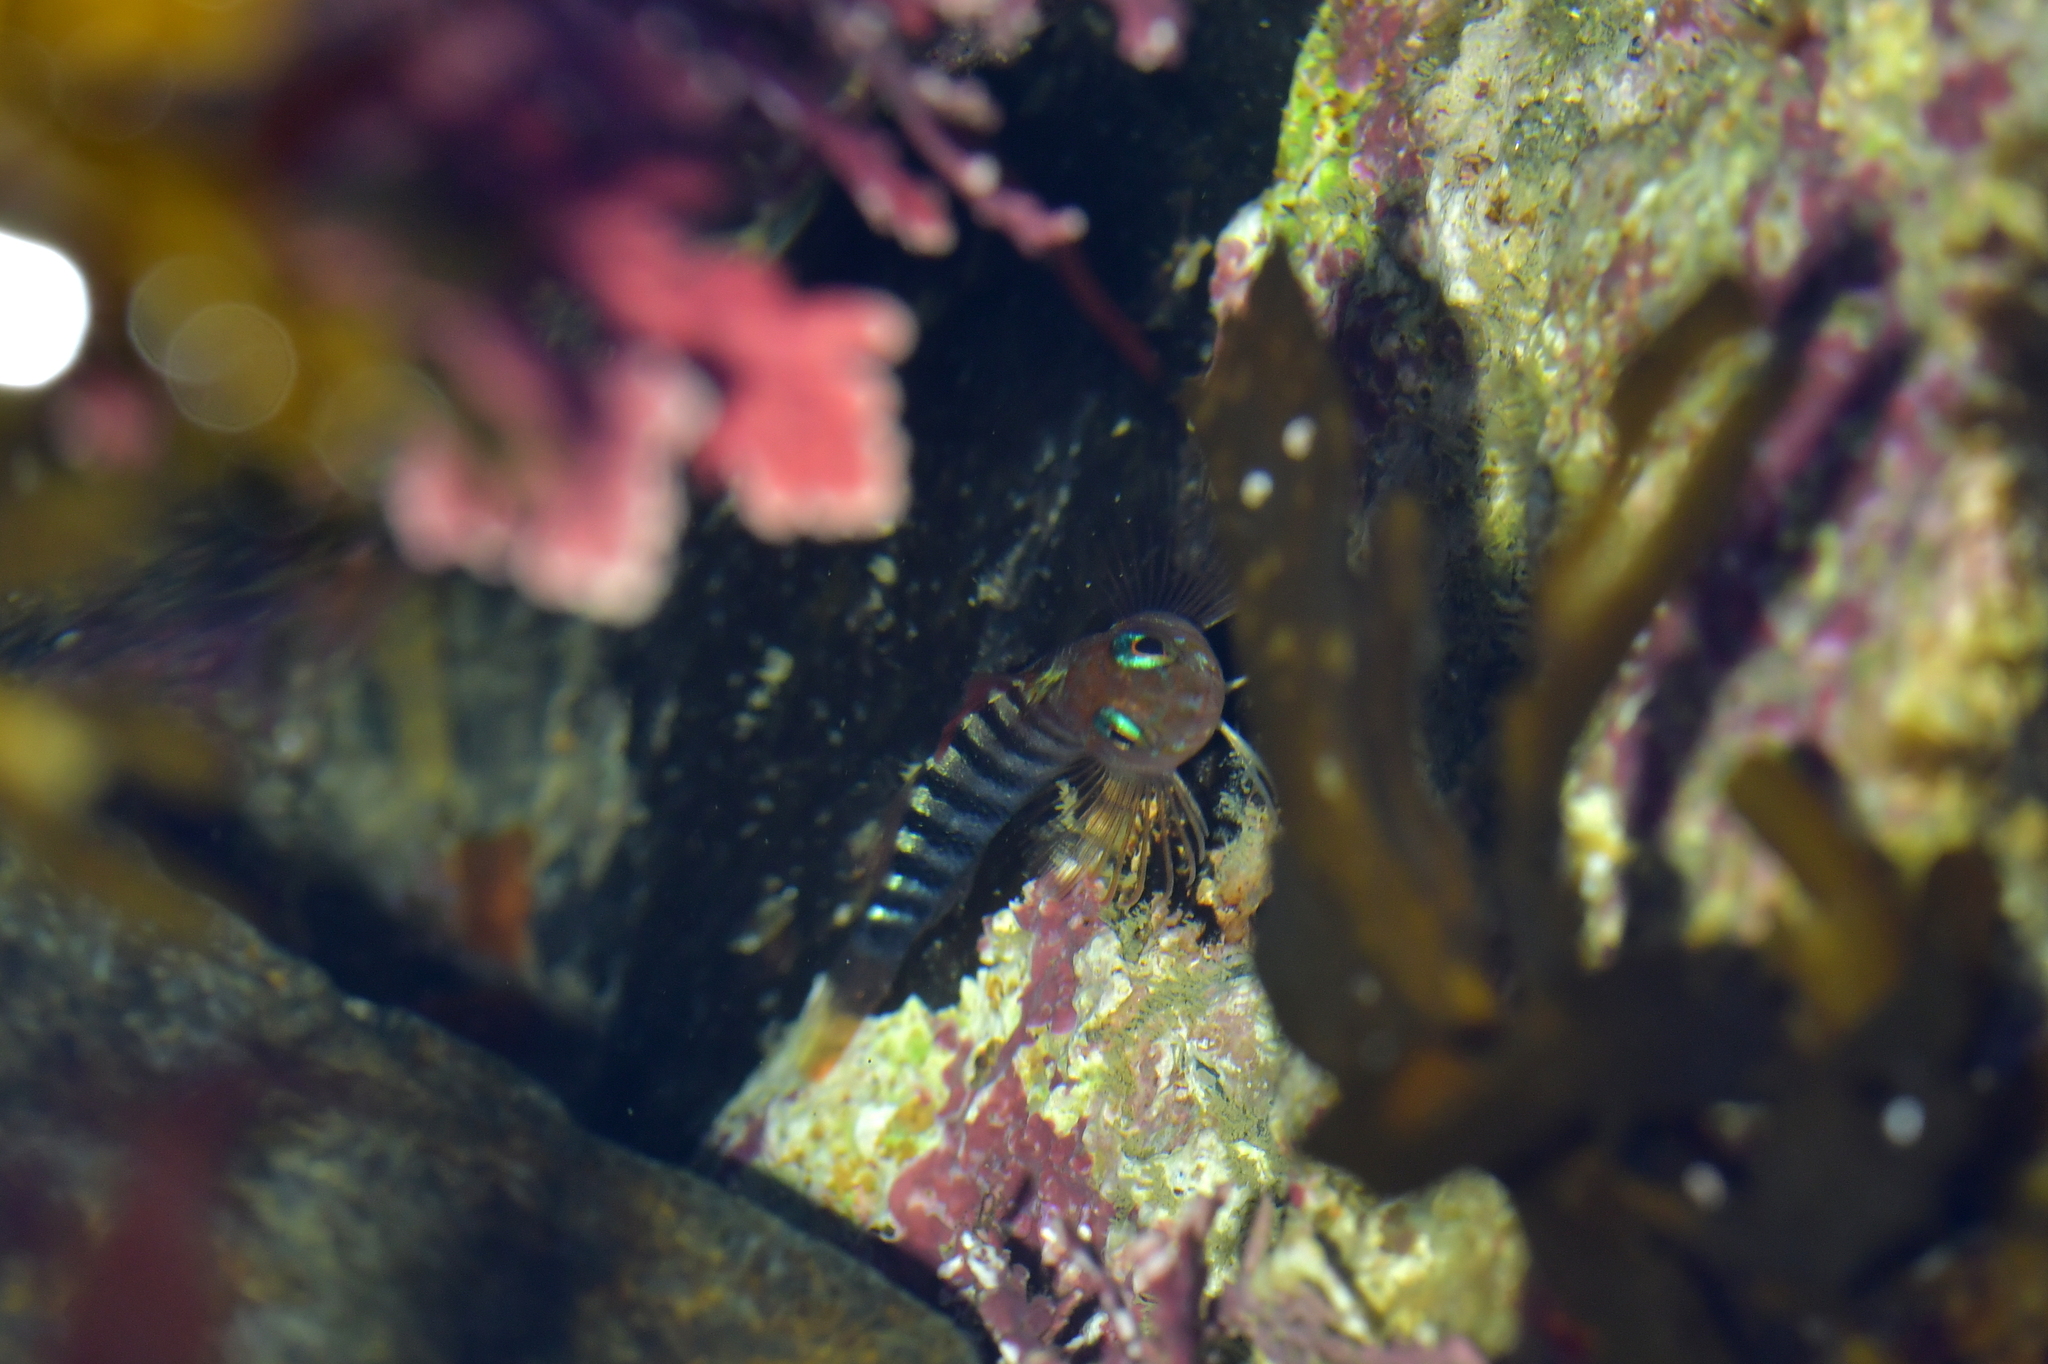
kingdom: Animalia
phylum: Chordata
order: Perciformes
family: Tripterygiidae
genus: Notoclinops
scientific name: Notoclinops segmentatus
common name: Blue-eyed triplefin
